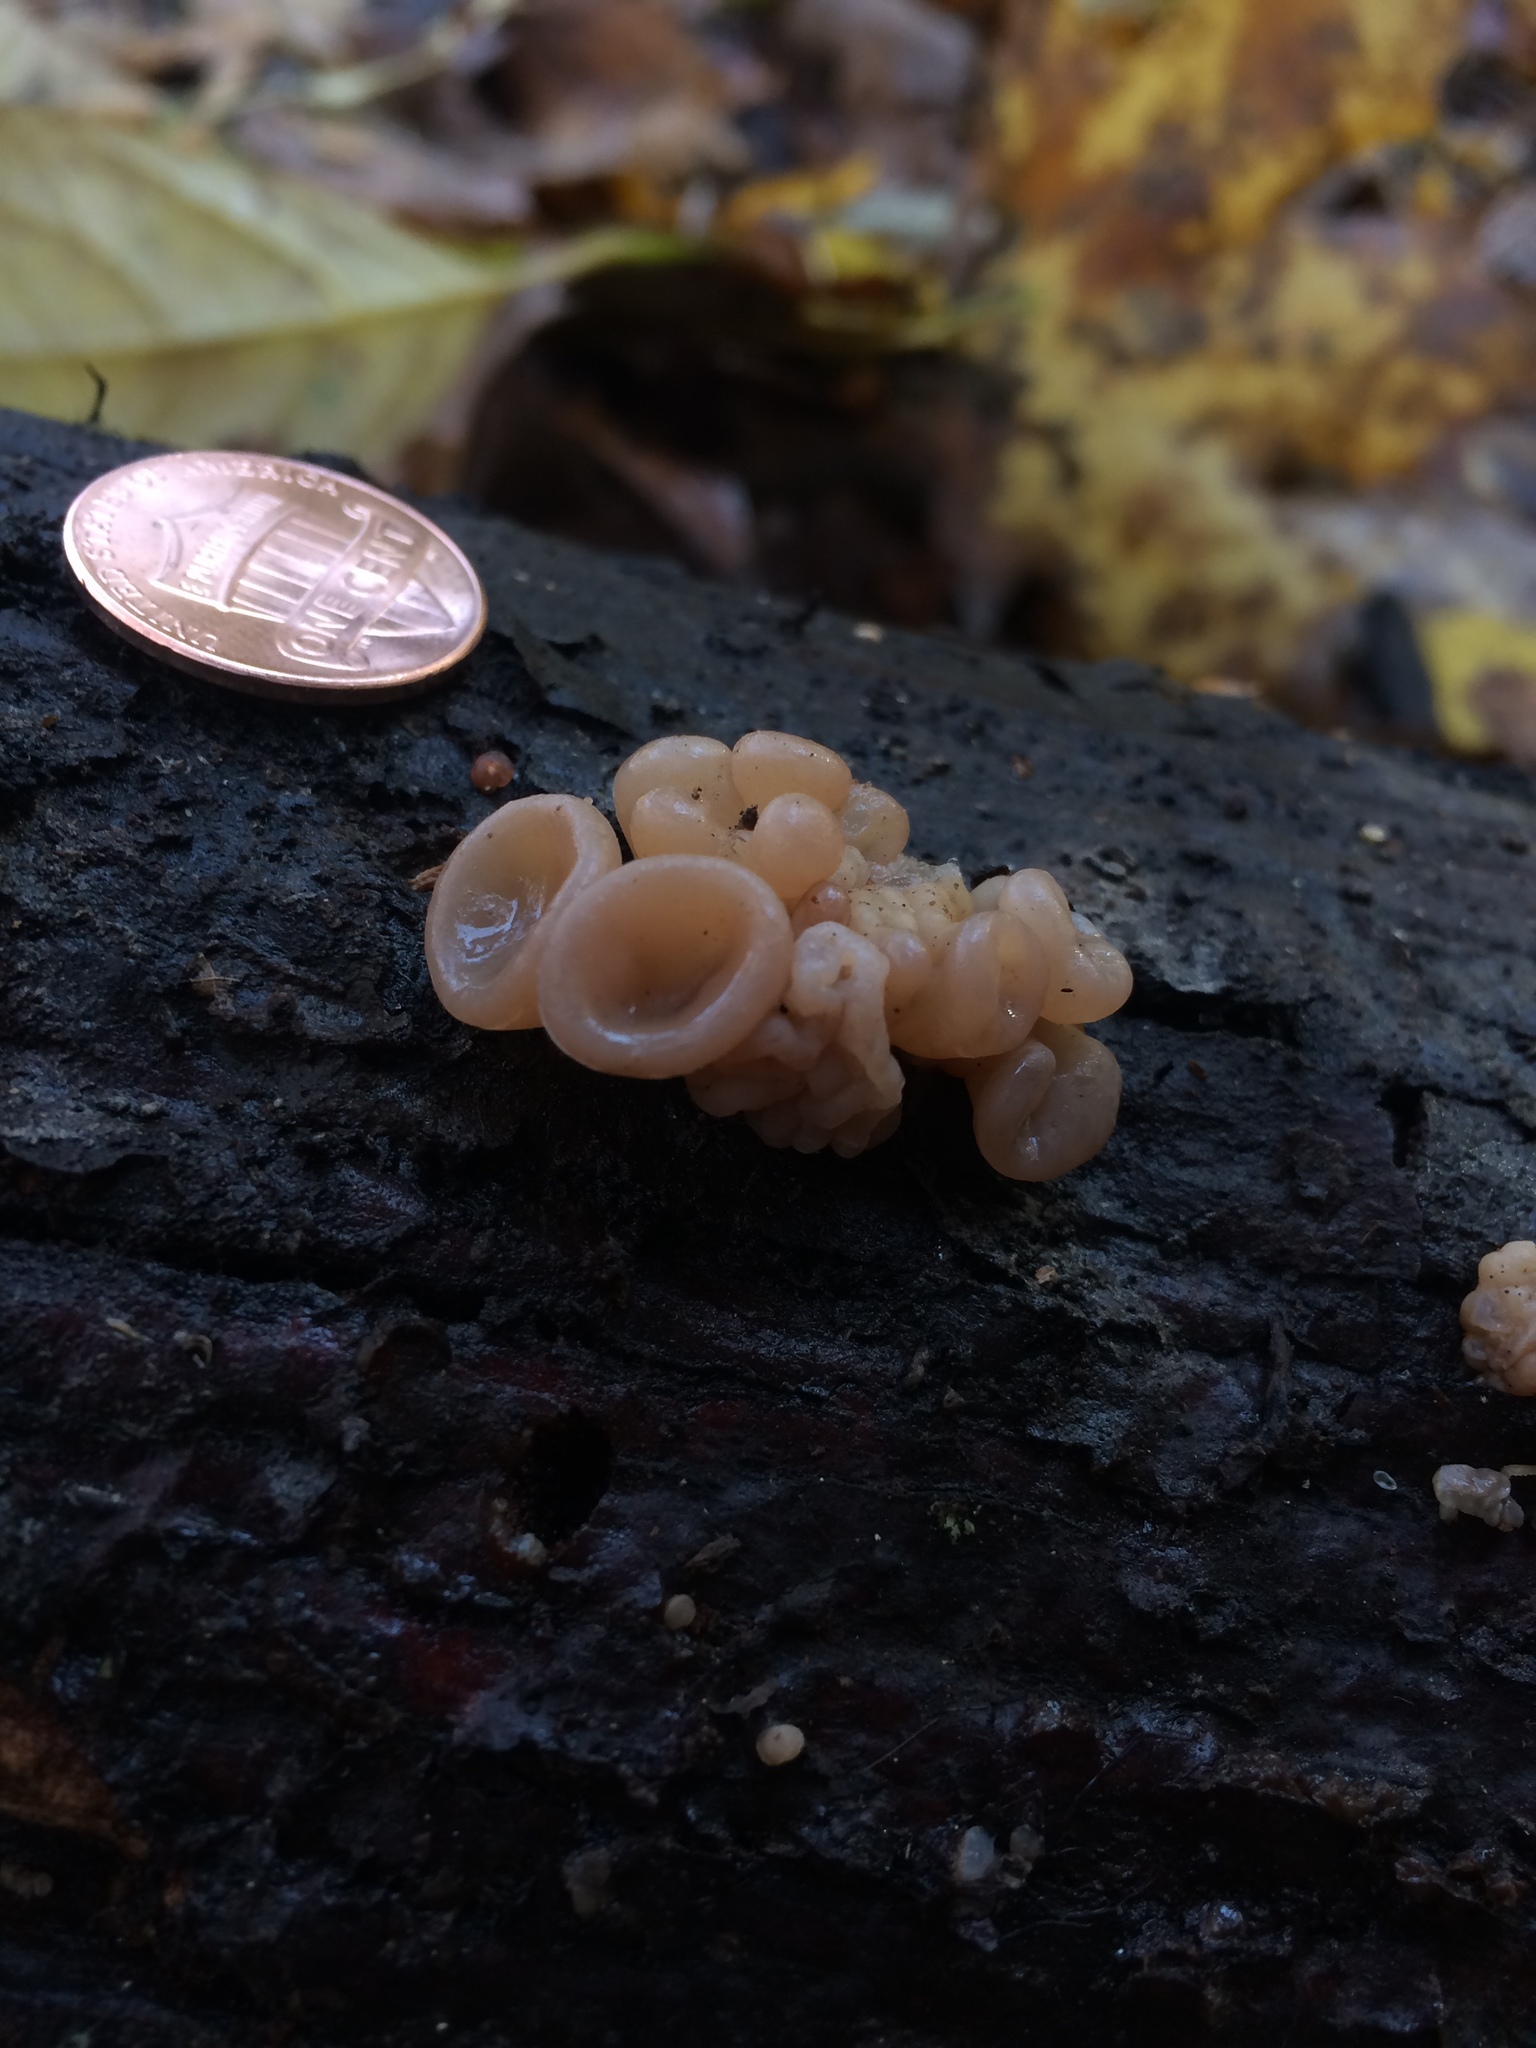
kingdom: Fungi
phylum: Basidiomycota
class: Agaricomycetes
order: Auriculariales
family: Auriculariaceae
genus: Auricularia
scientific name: Auricularia angiospermarum
